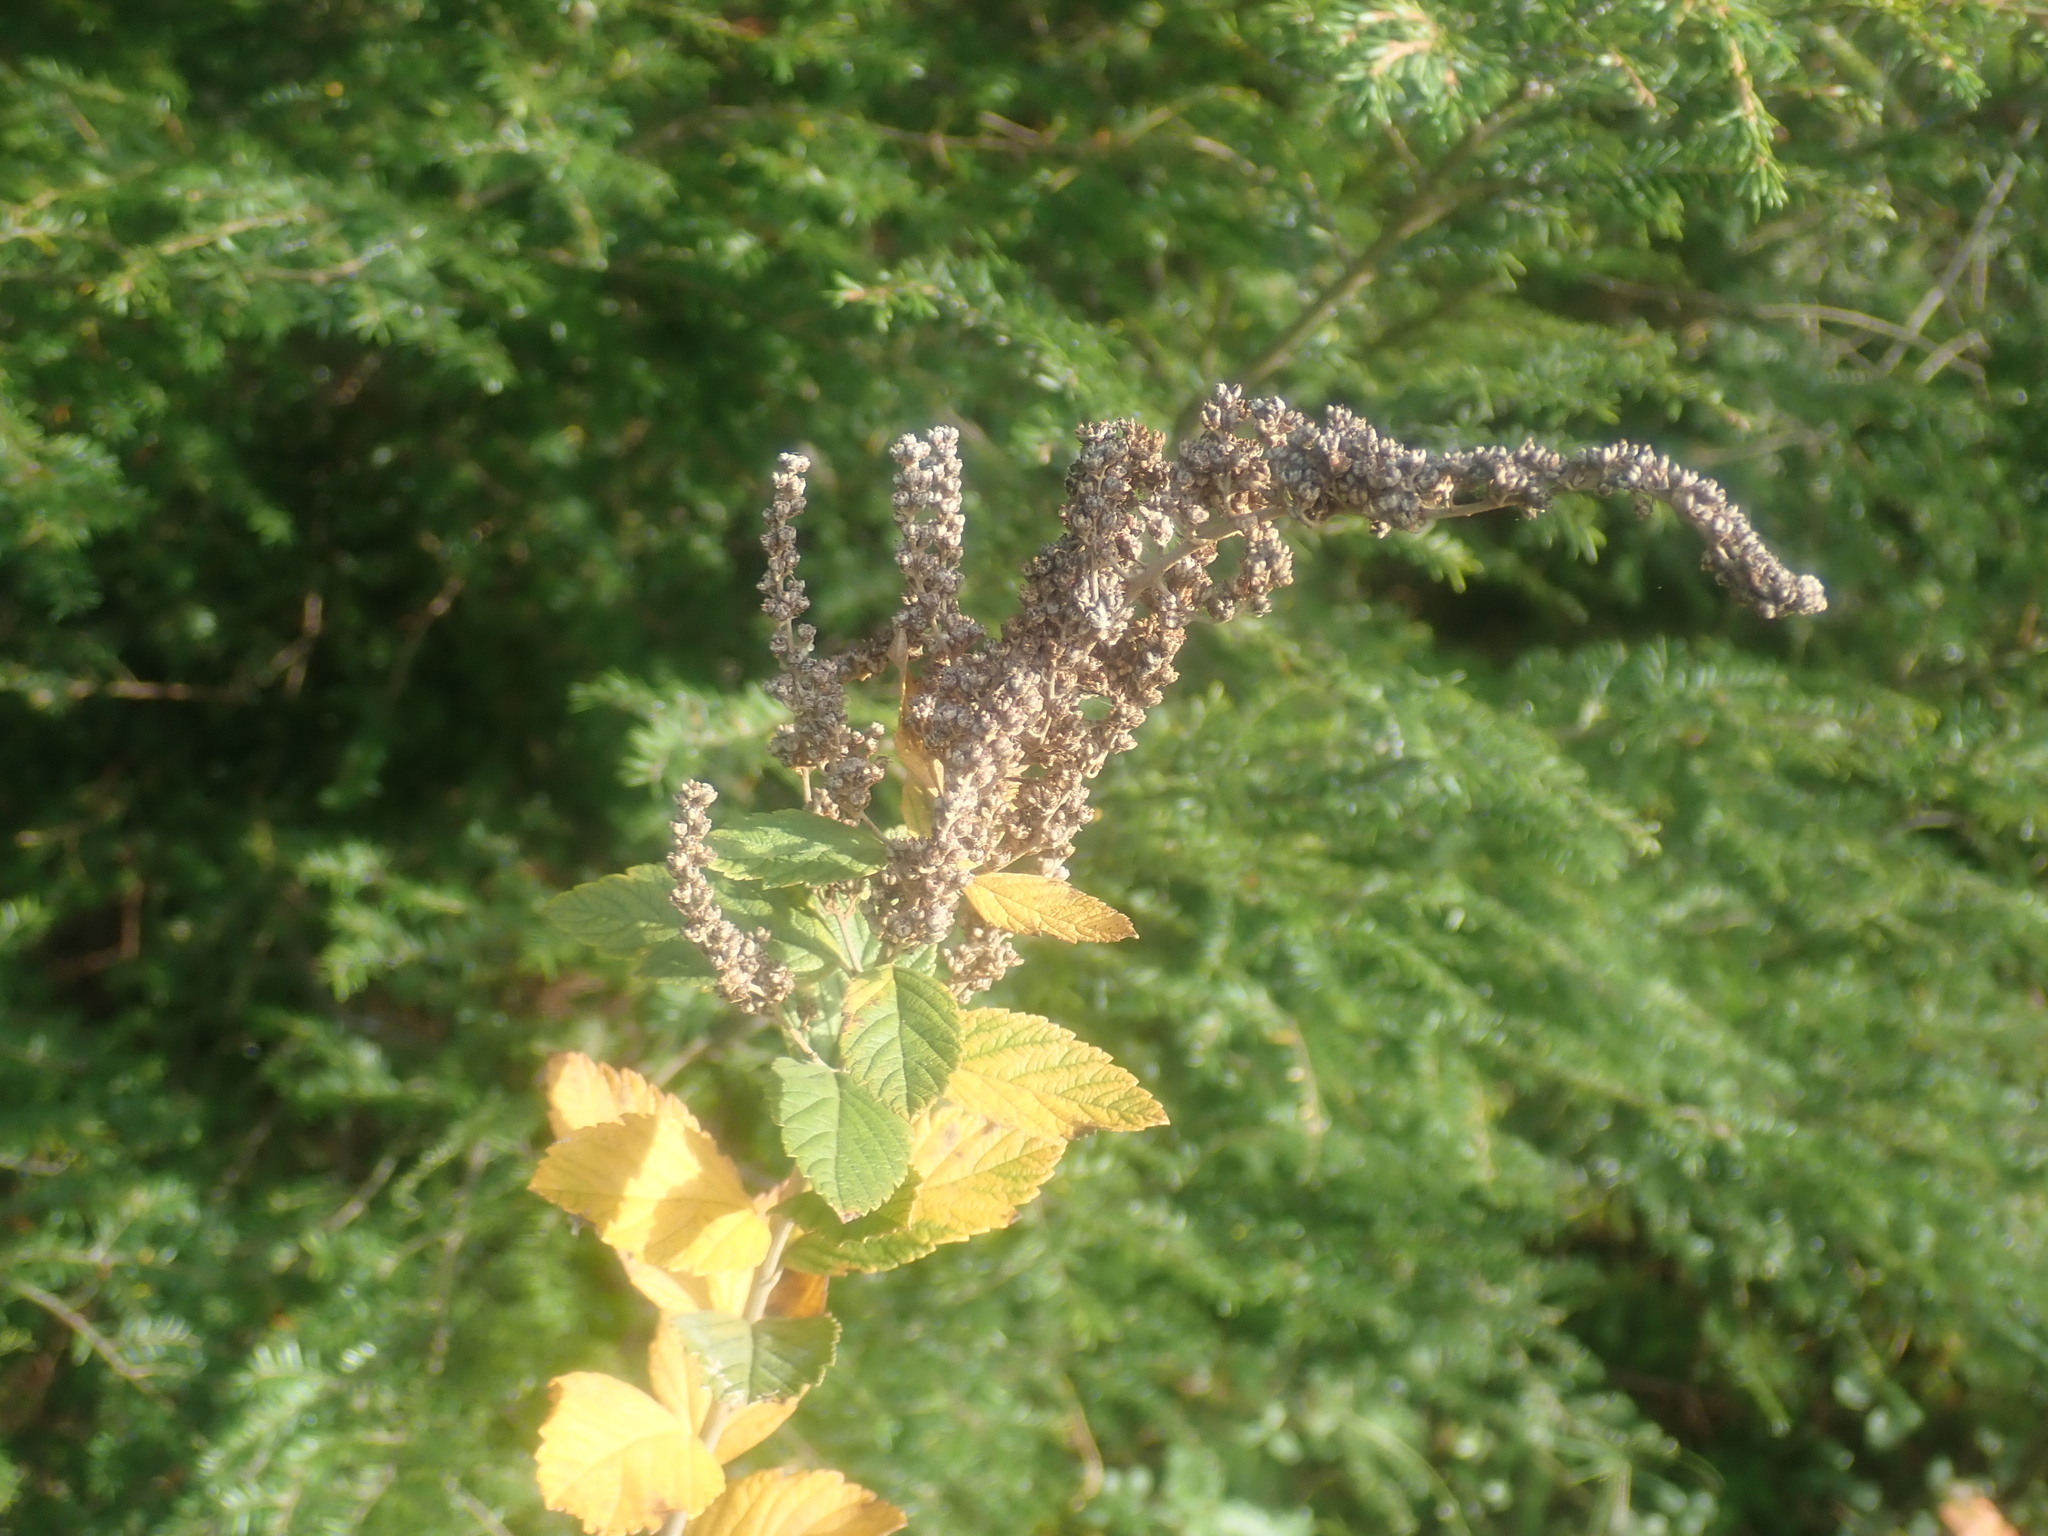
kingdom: Plantae
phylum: Tracheophyta
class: Magnoliopsida
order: Rosales
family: Rosaceae
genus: Spiraea
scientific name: Spiraea tomentosa
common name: Hardhack
